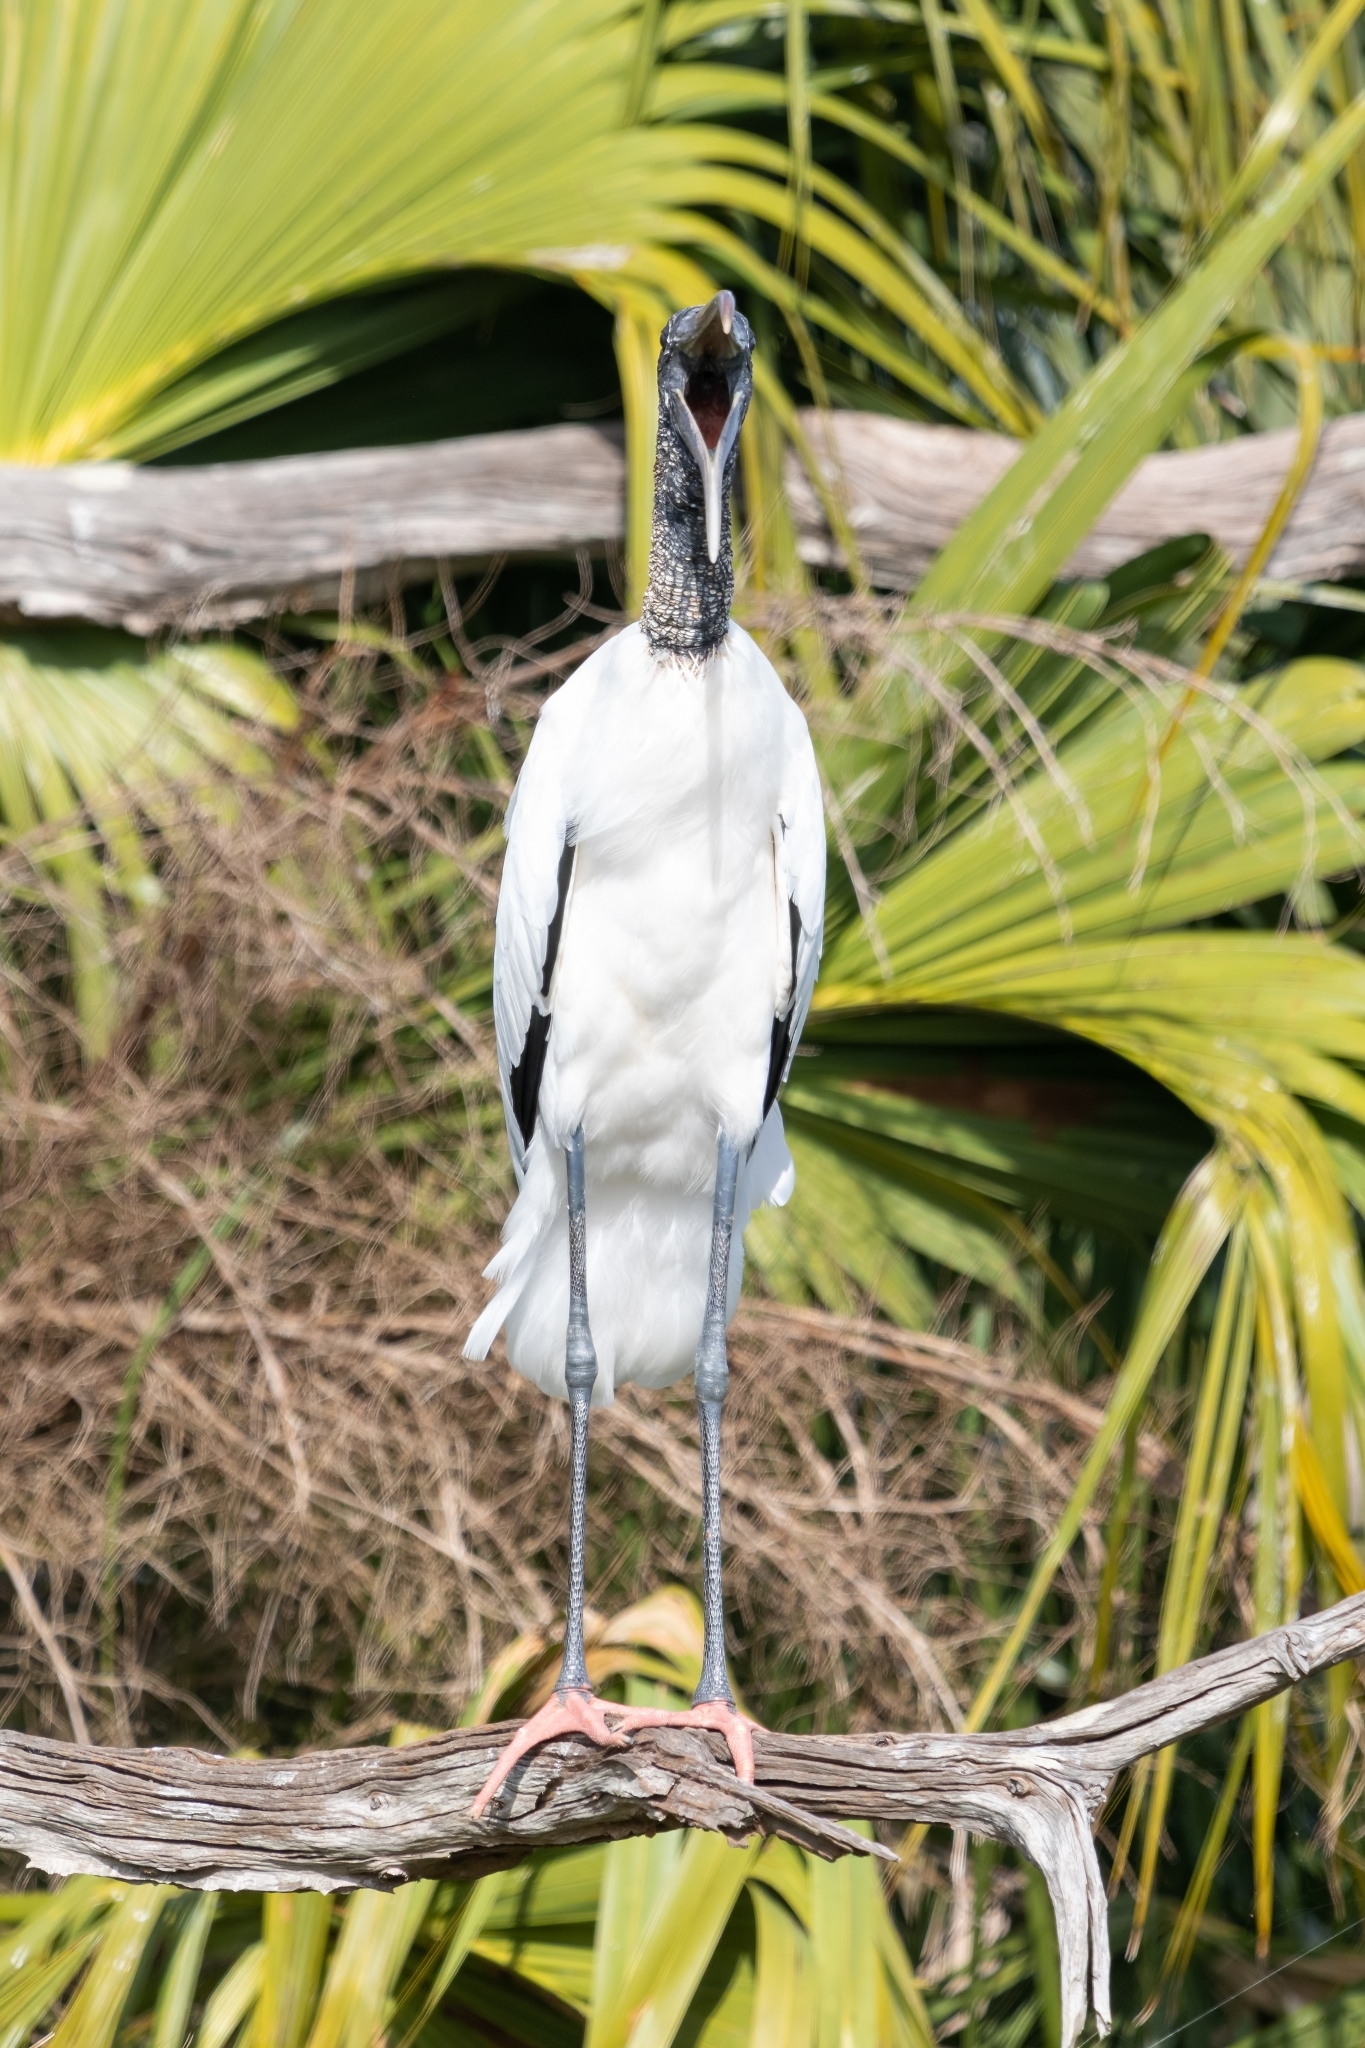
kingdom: Animalia
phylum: Chordata
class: Aves
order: Ciconiiformes
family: Ciconiidae
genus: Mycteria
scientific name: Mycteria americana
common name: Wood stork
